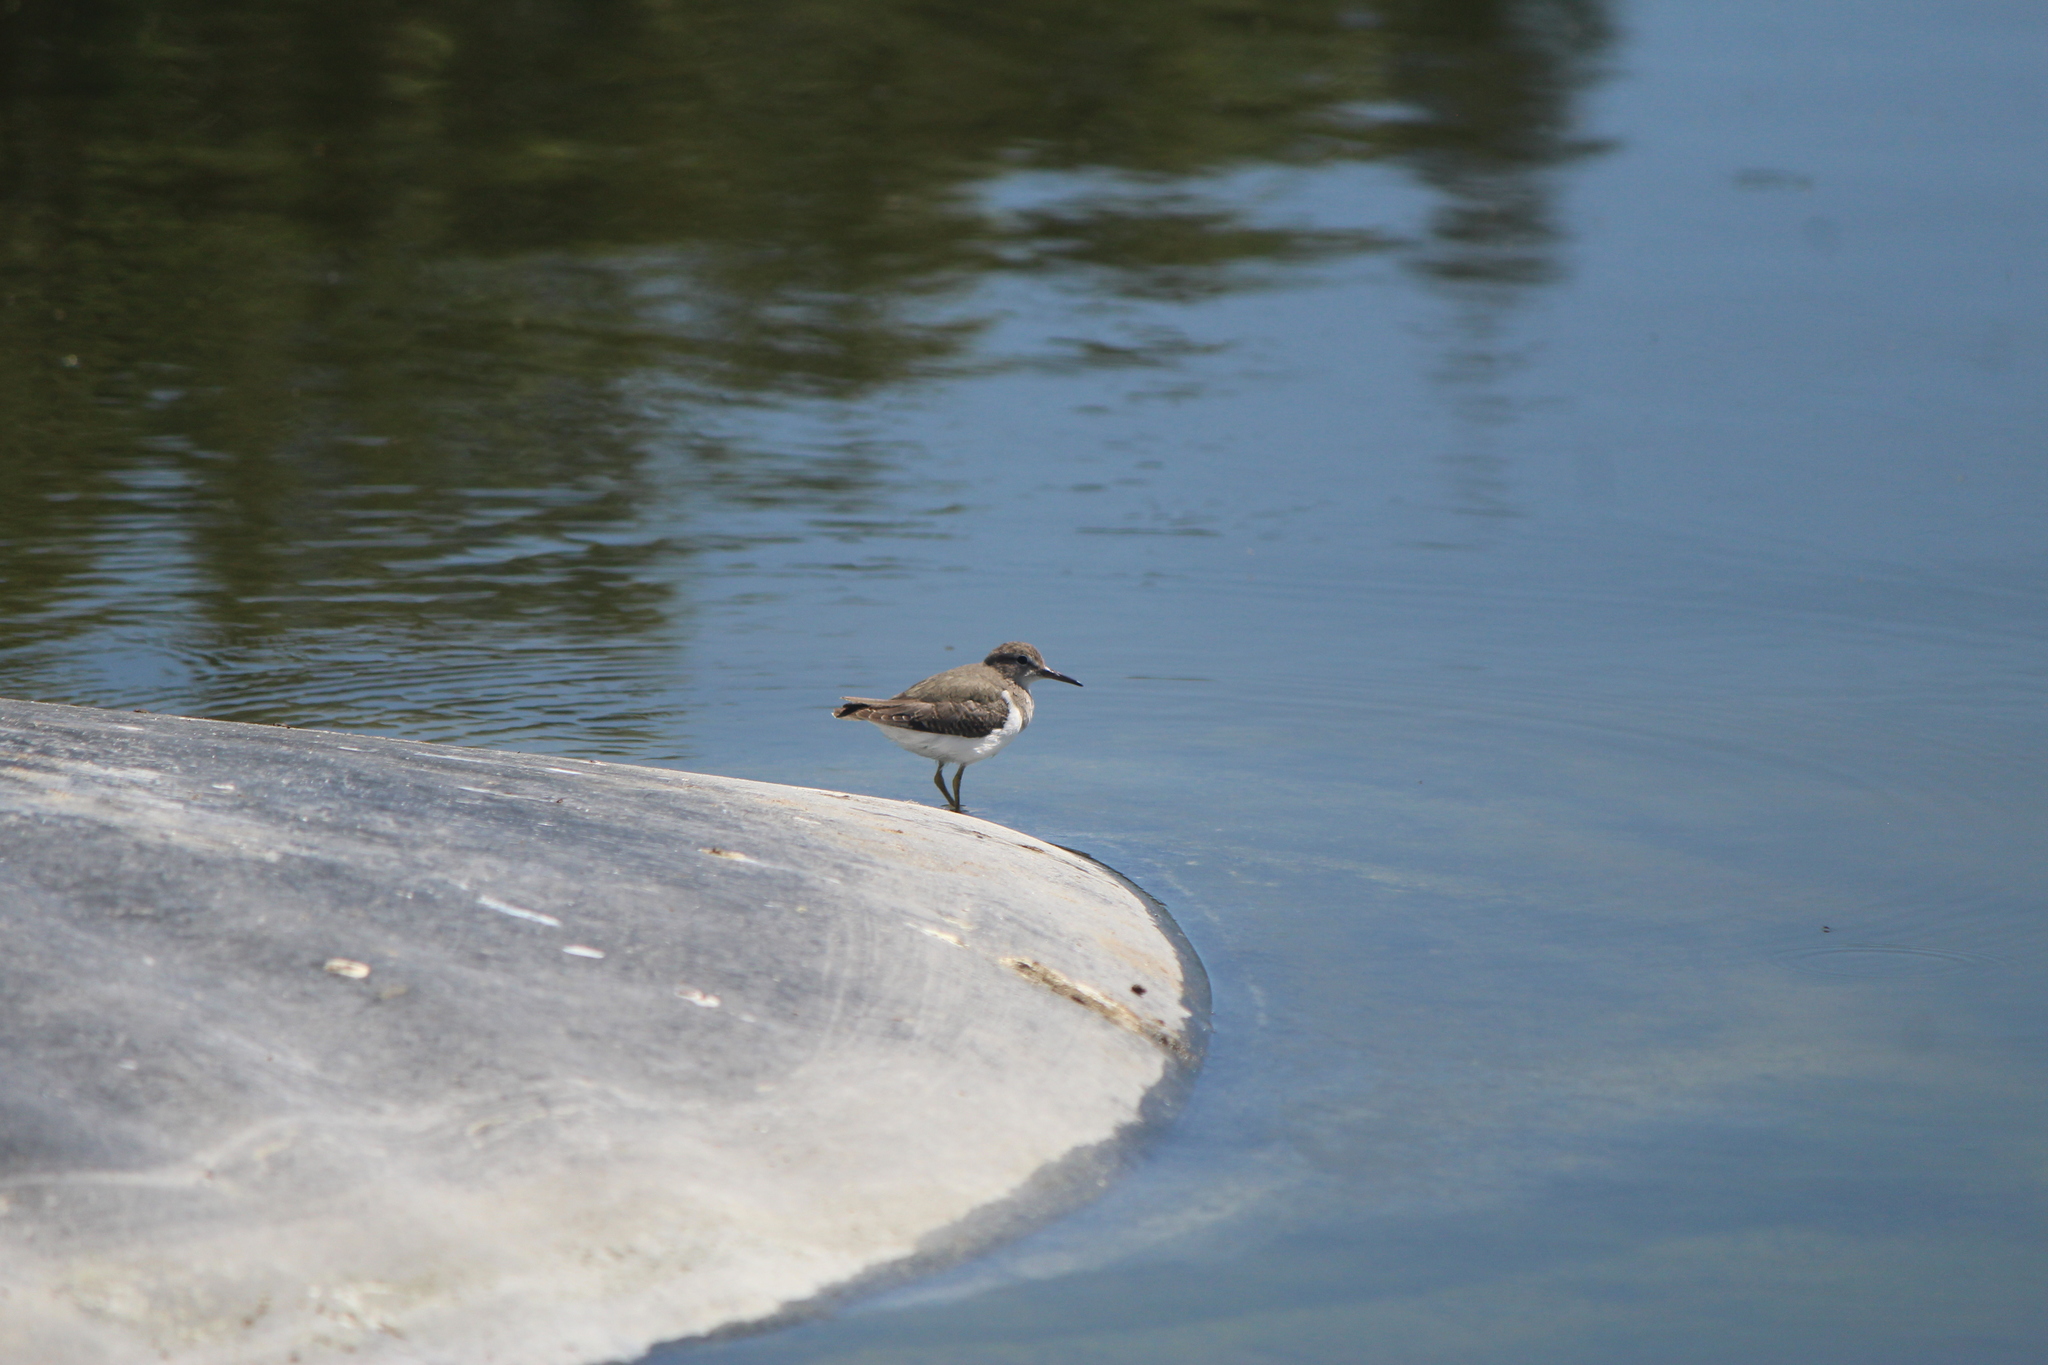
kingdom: Animalia
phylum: Chordata
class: Aves
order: Charadriiformes
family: Scolopacidae
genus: Actitis
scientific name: Actitis macularius
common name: Spotted sandpiper
